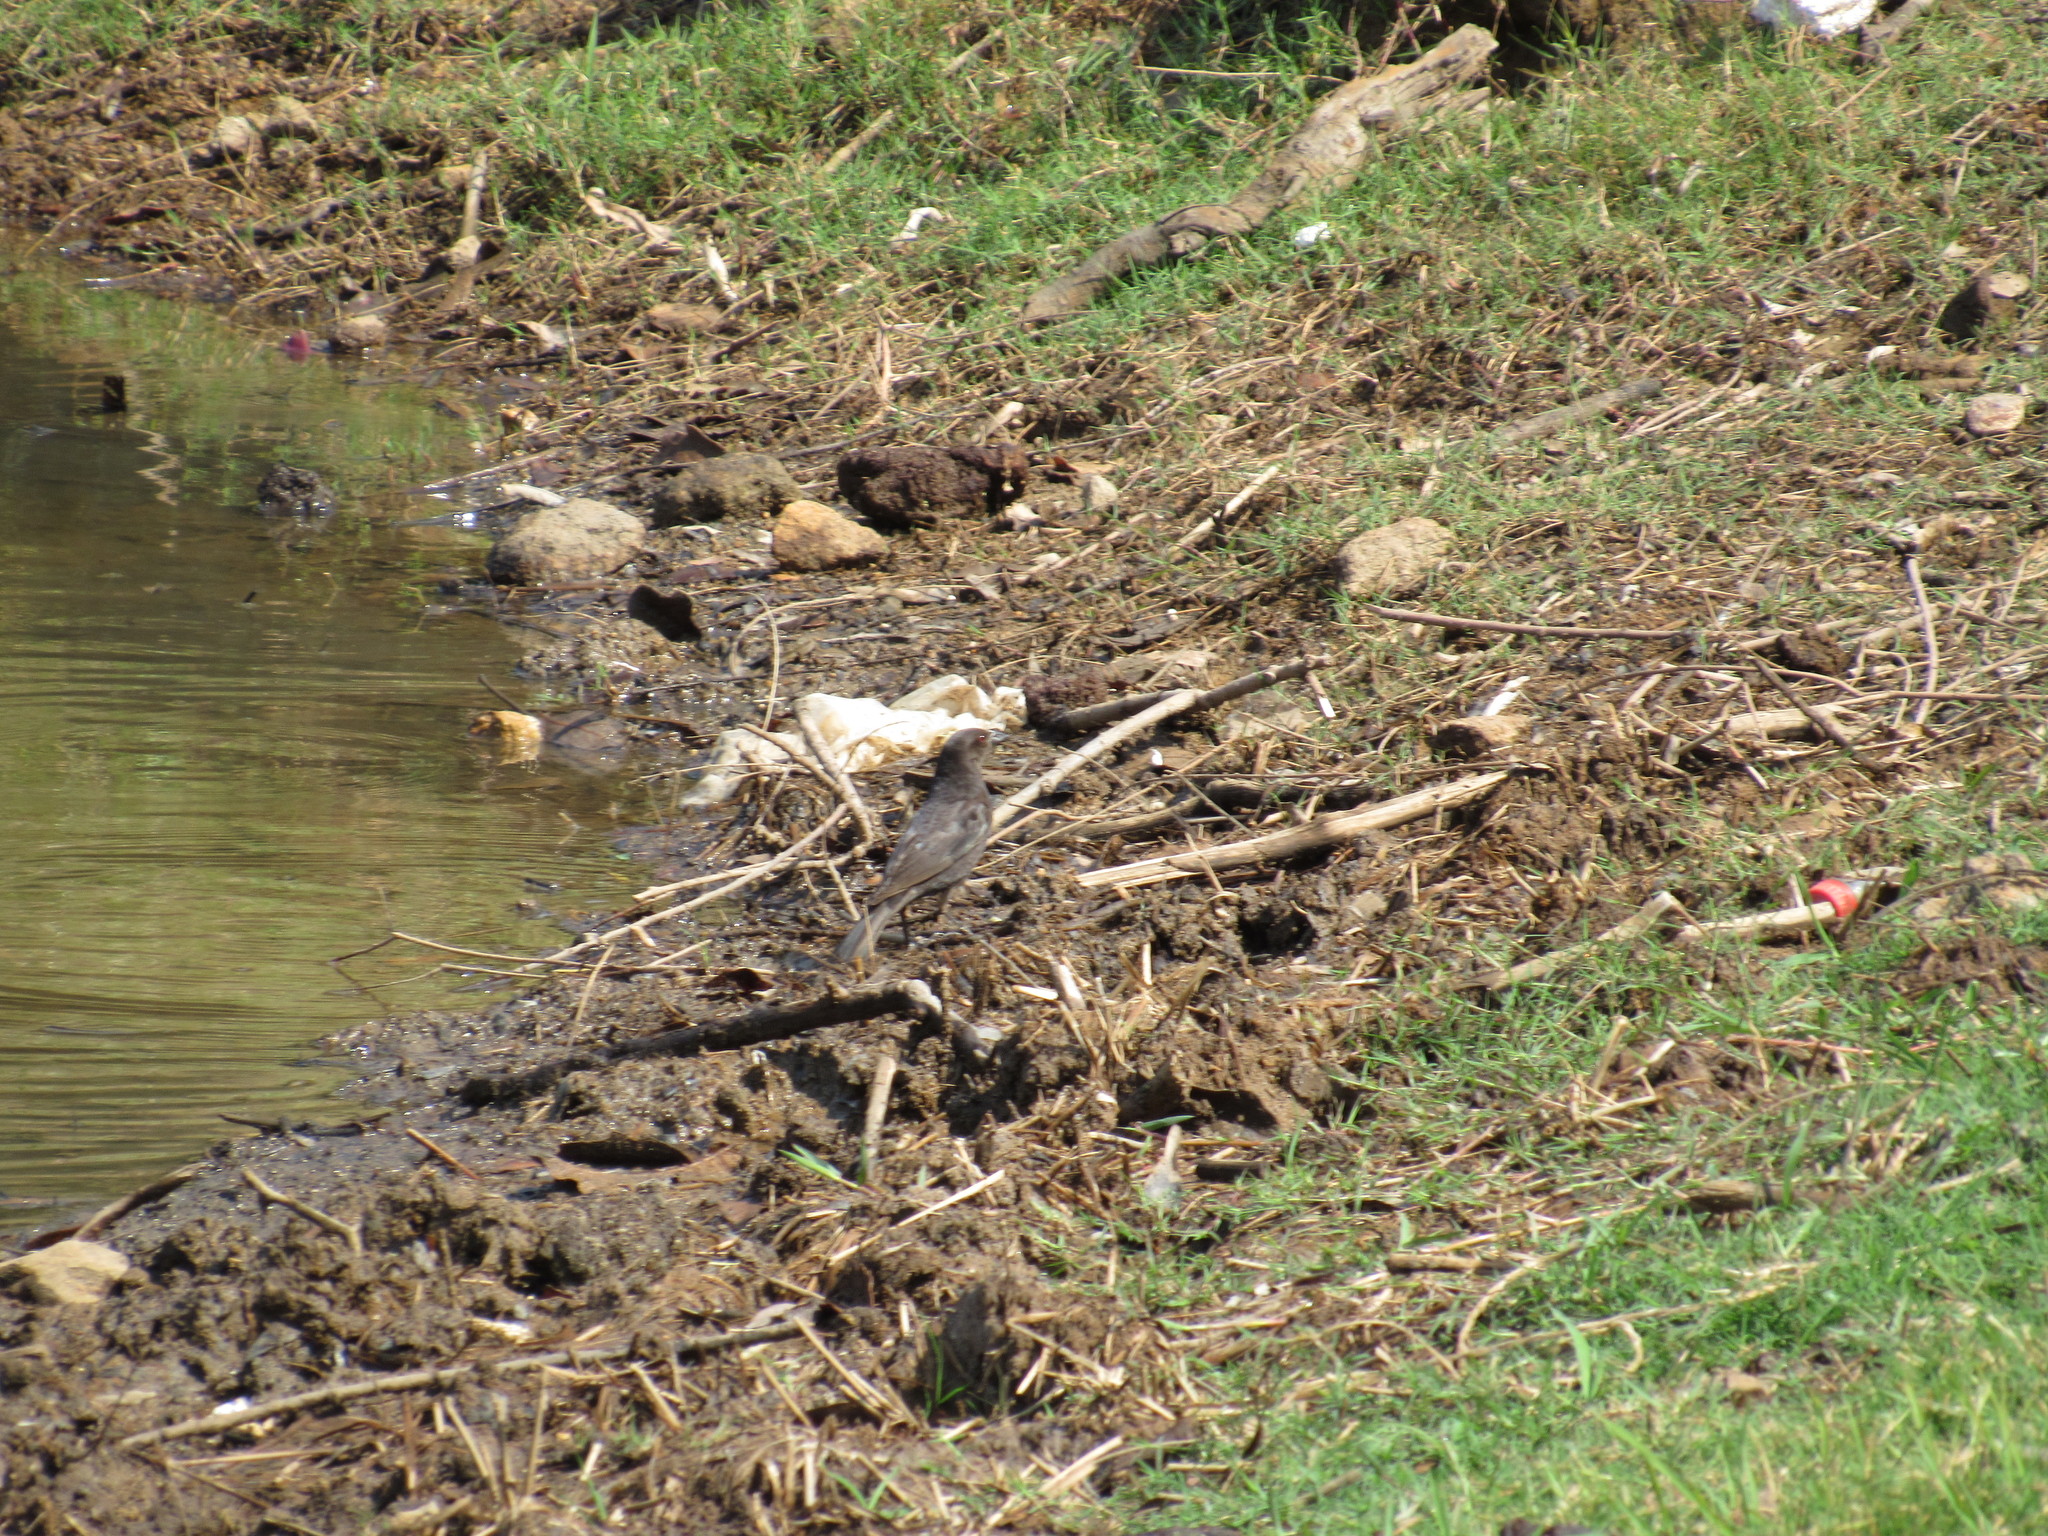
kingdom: Animalia
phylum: Chordata
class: Aves
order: Passeriformes
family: Icteridae
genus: Molothrus
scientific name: Molothrus aeneus
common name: Bronzed cowbird
